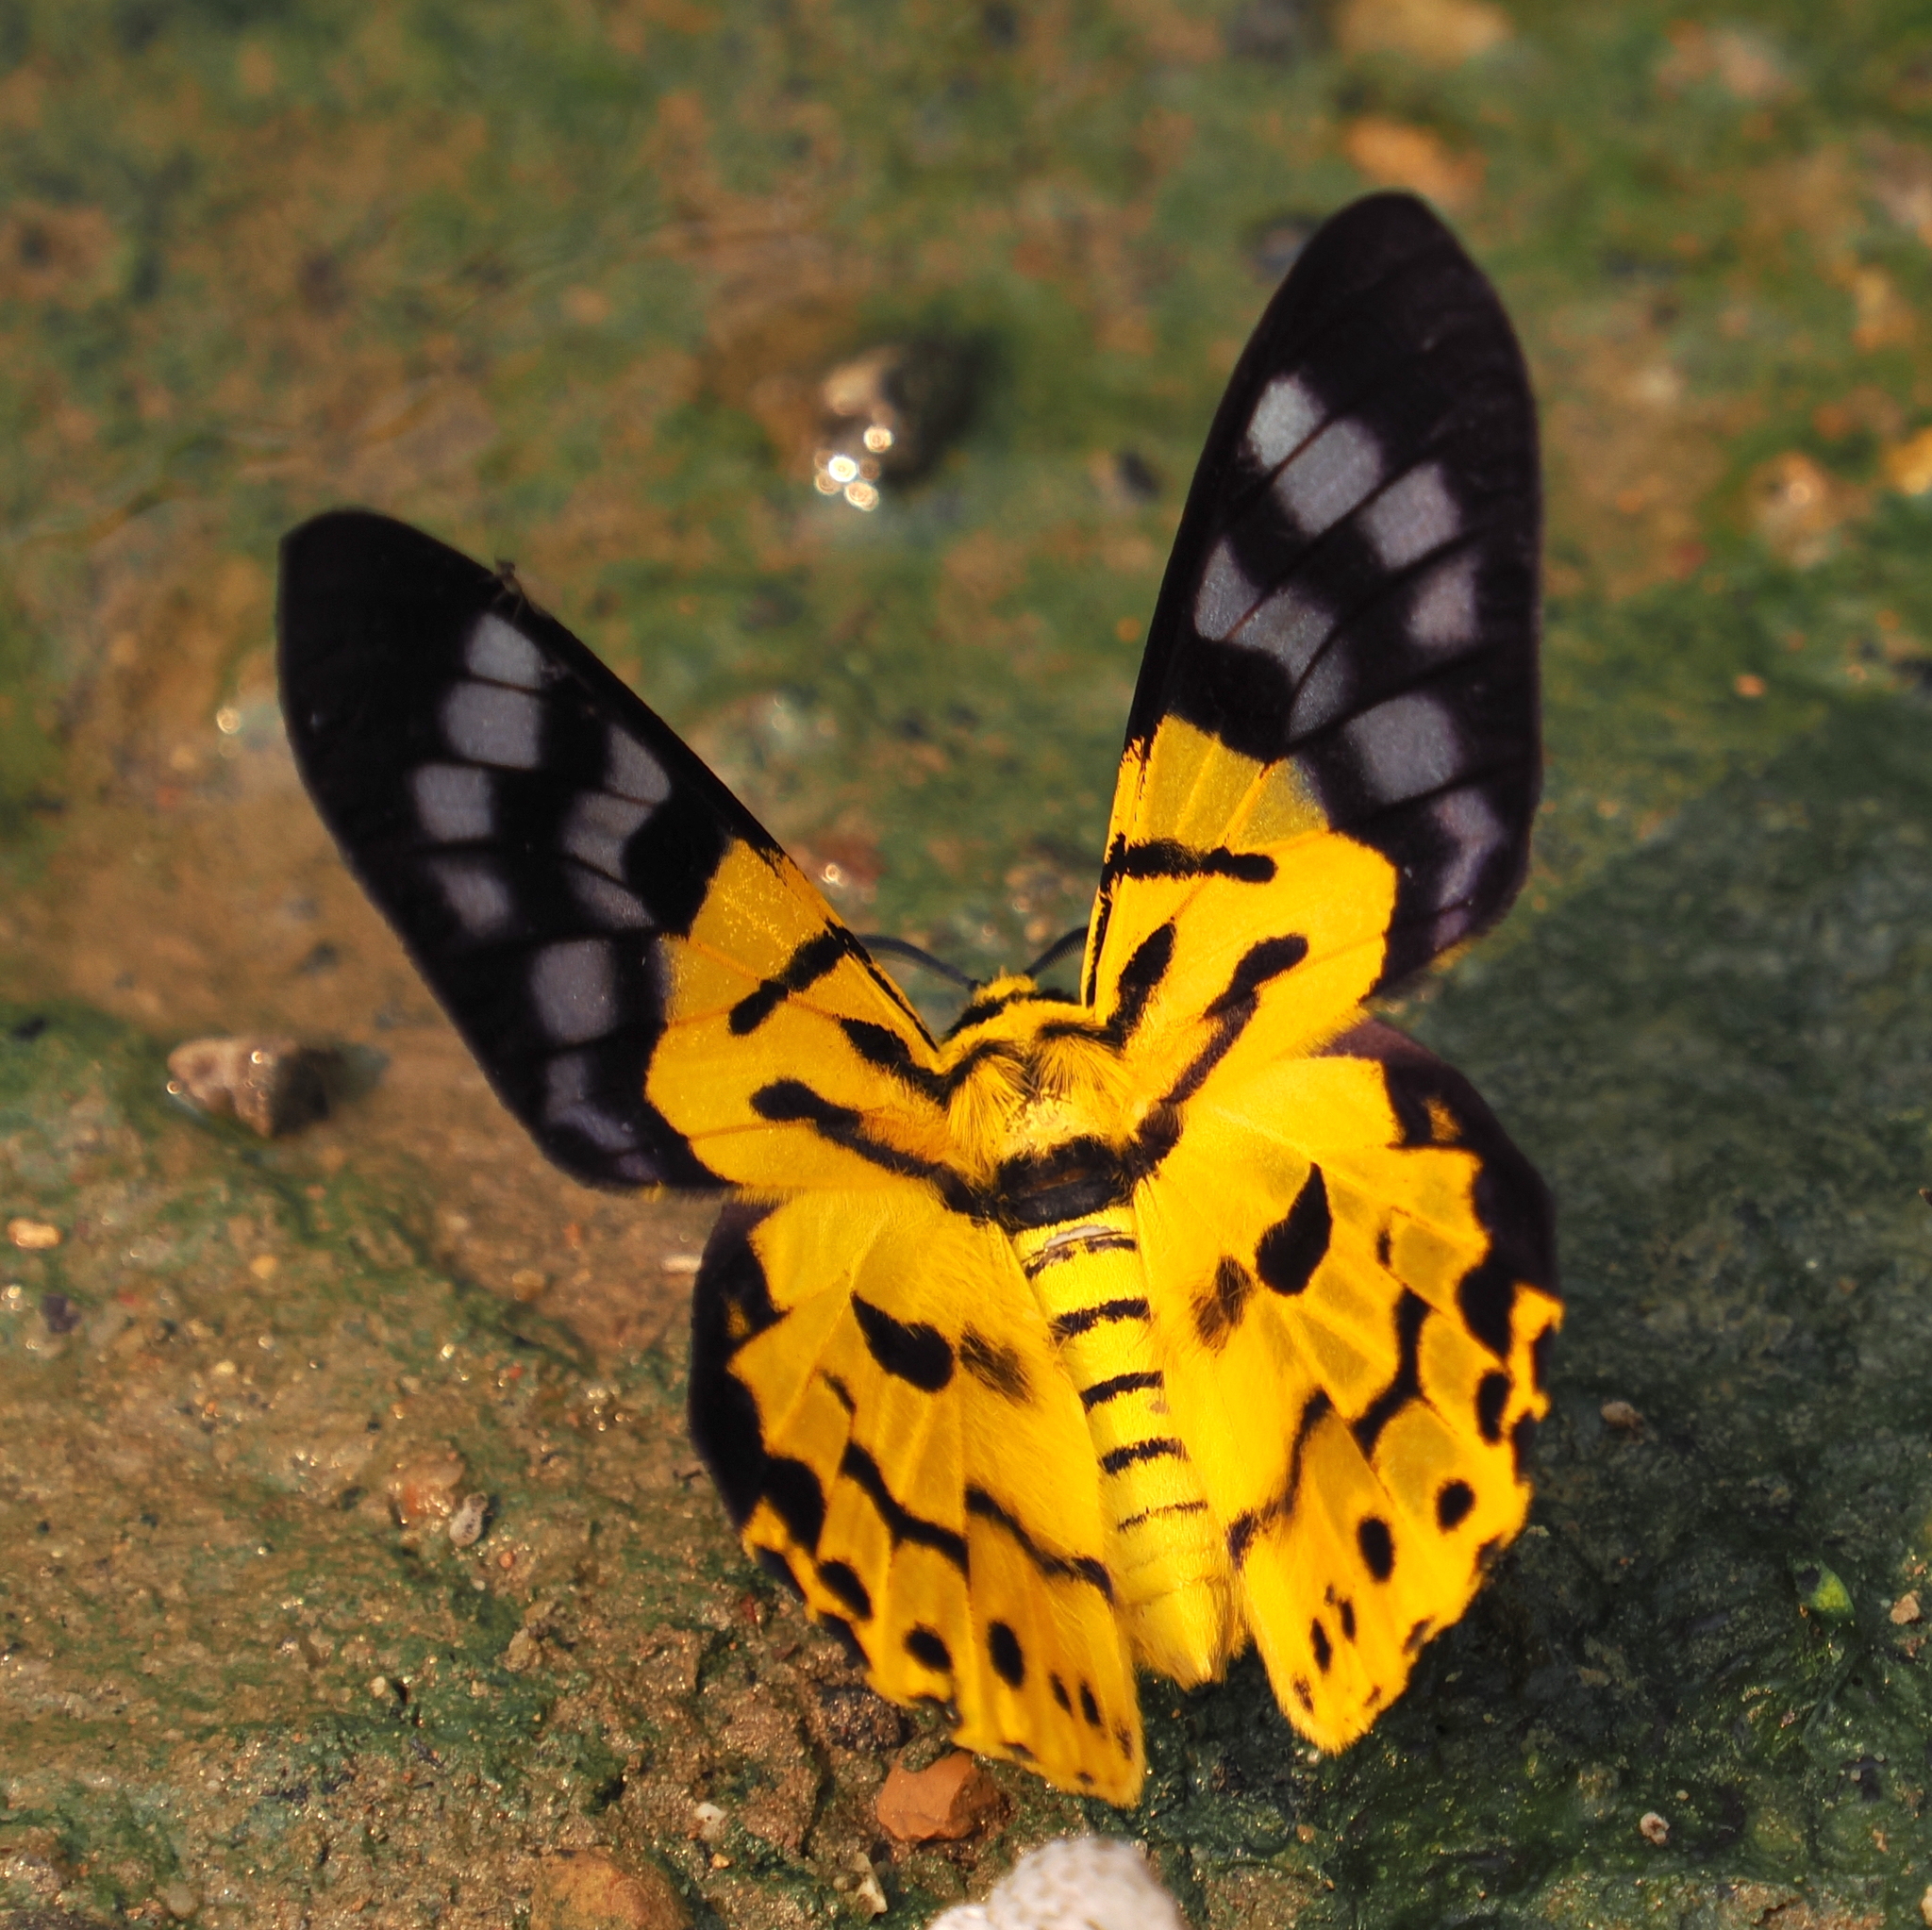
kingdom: Animalia
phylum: Arthropoda
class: Insecta
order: Lepidoptera
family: Geometridae
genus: Dysphania
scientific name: Dysphania militaris
